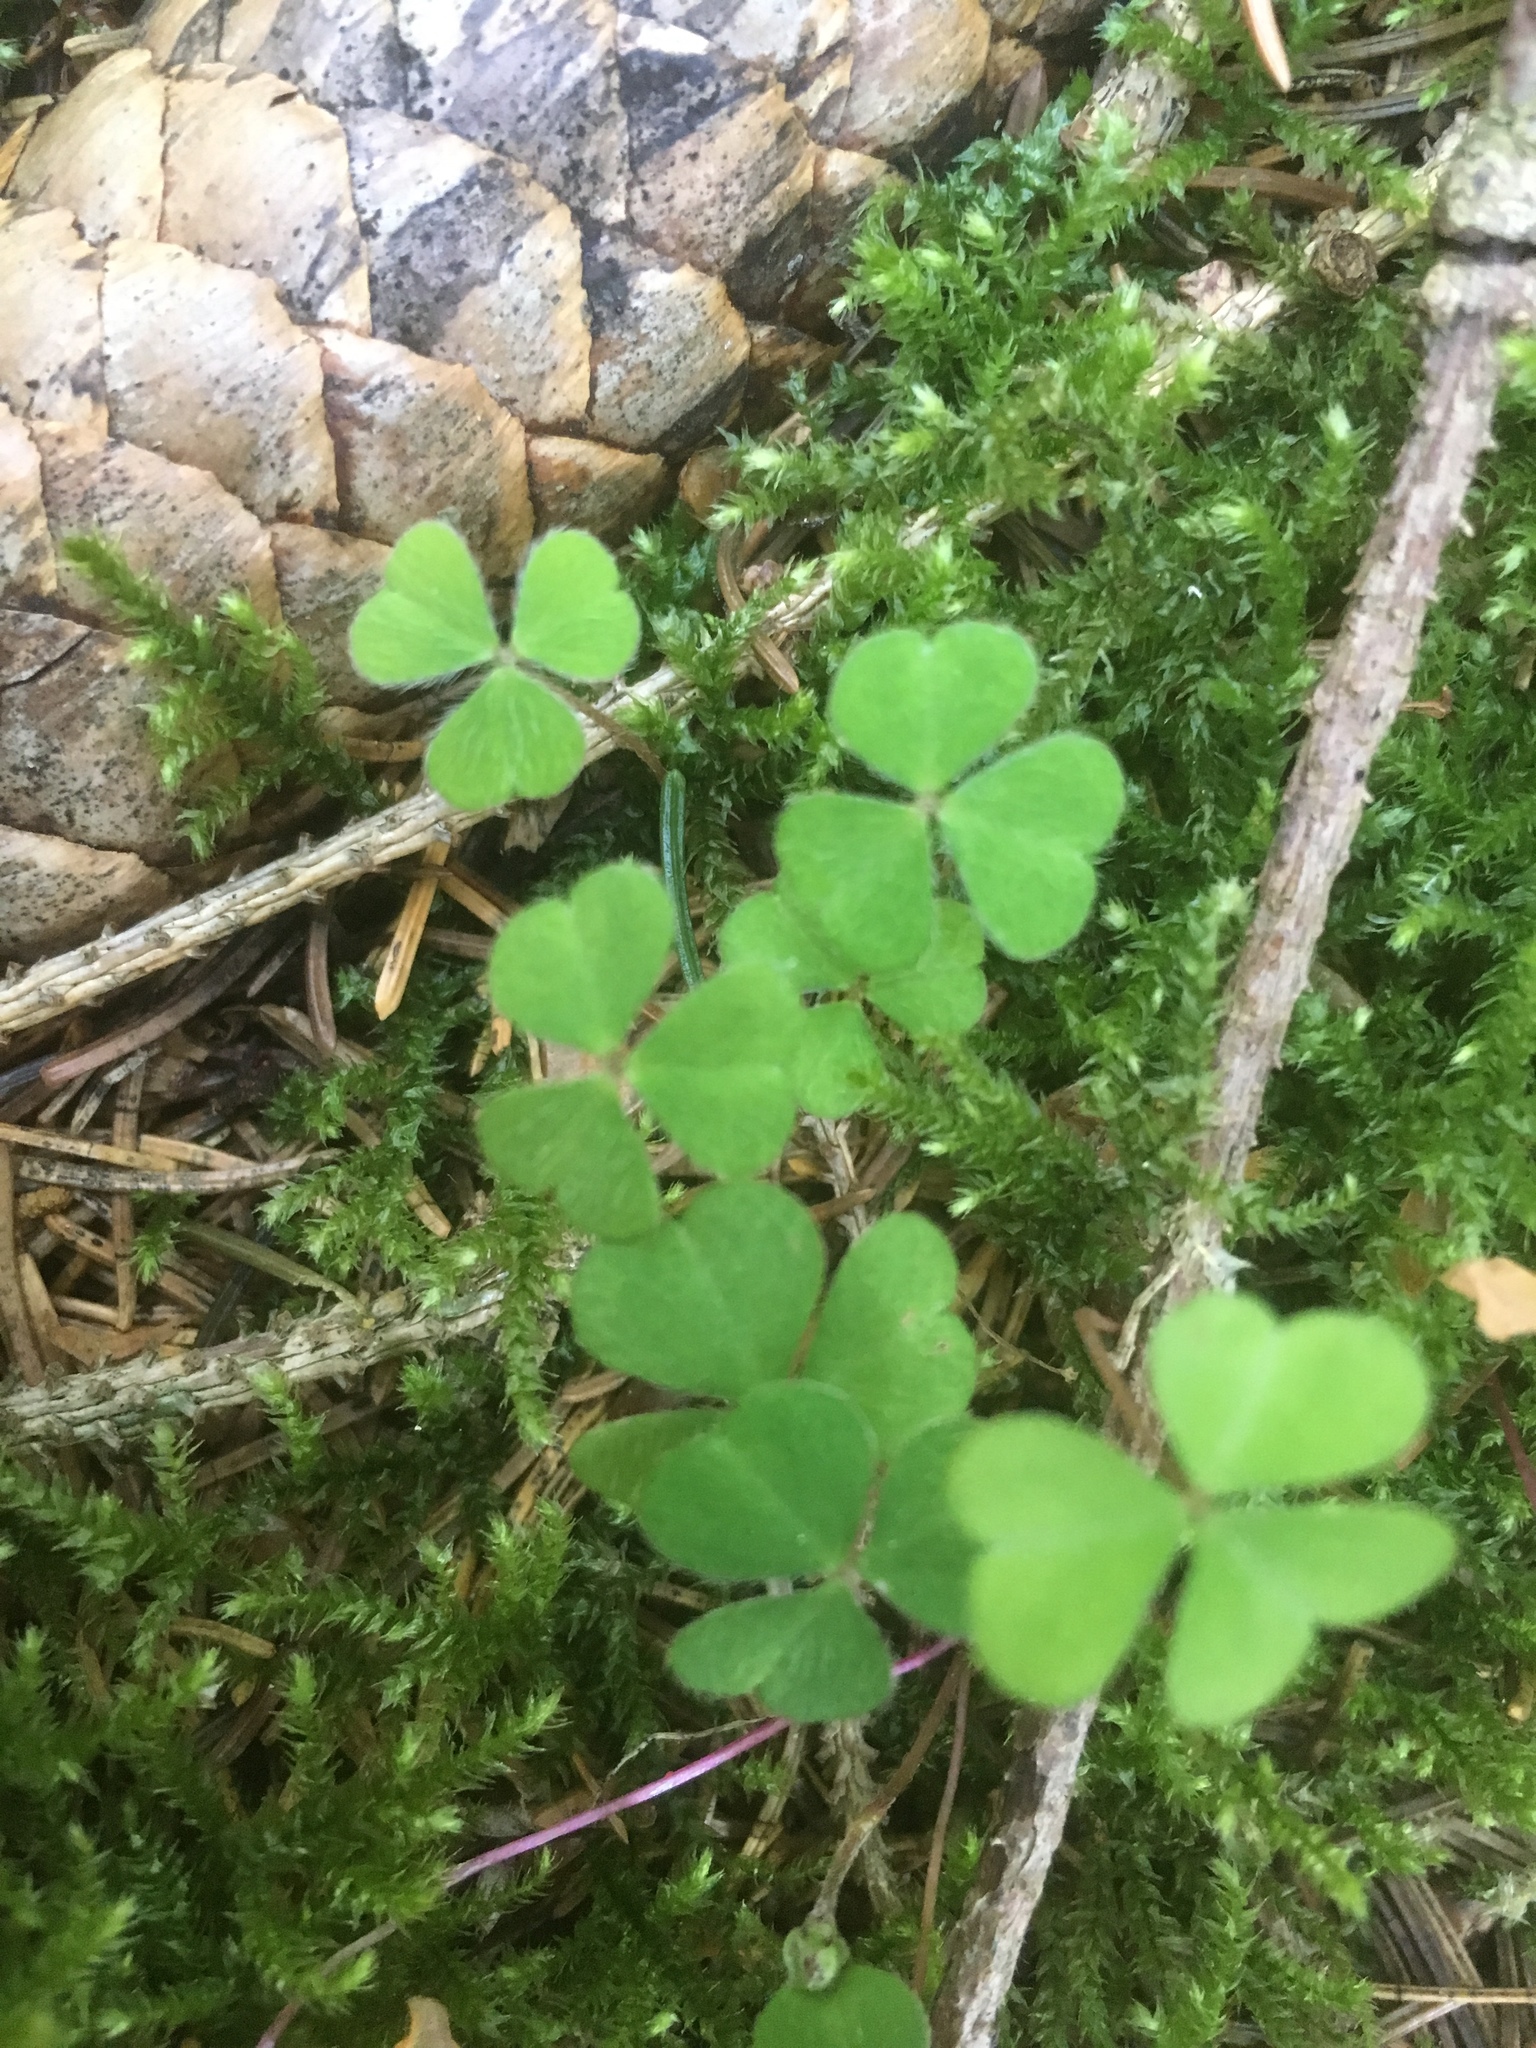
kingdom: Plantae
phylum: Tracheophyta
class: Magnoliopsida
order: Oxalidales
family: Oxalidaceae
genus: Oxalis
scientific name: Oxalis acetosella
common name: Wood-sorrel
